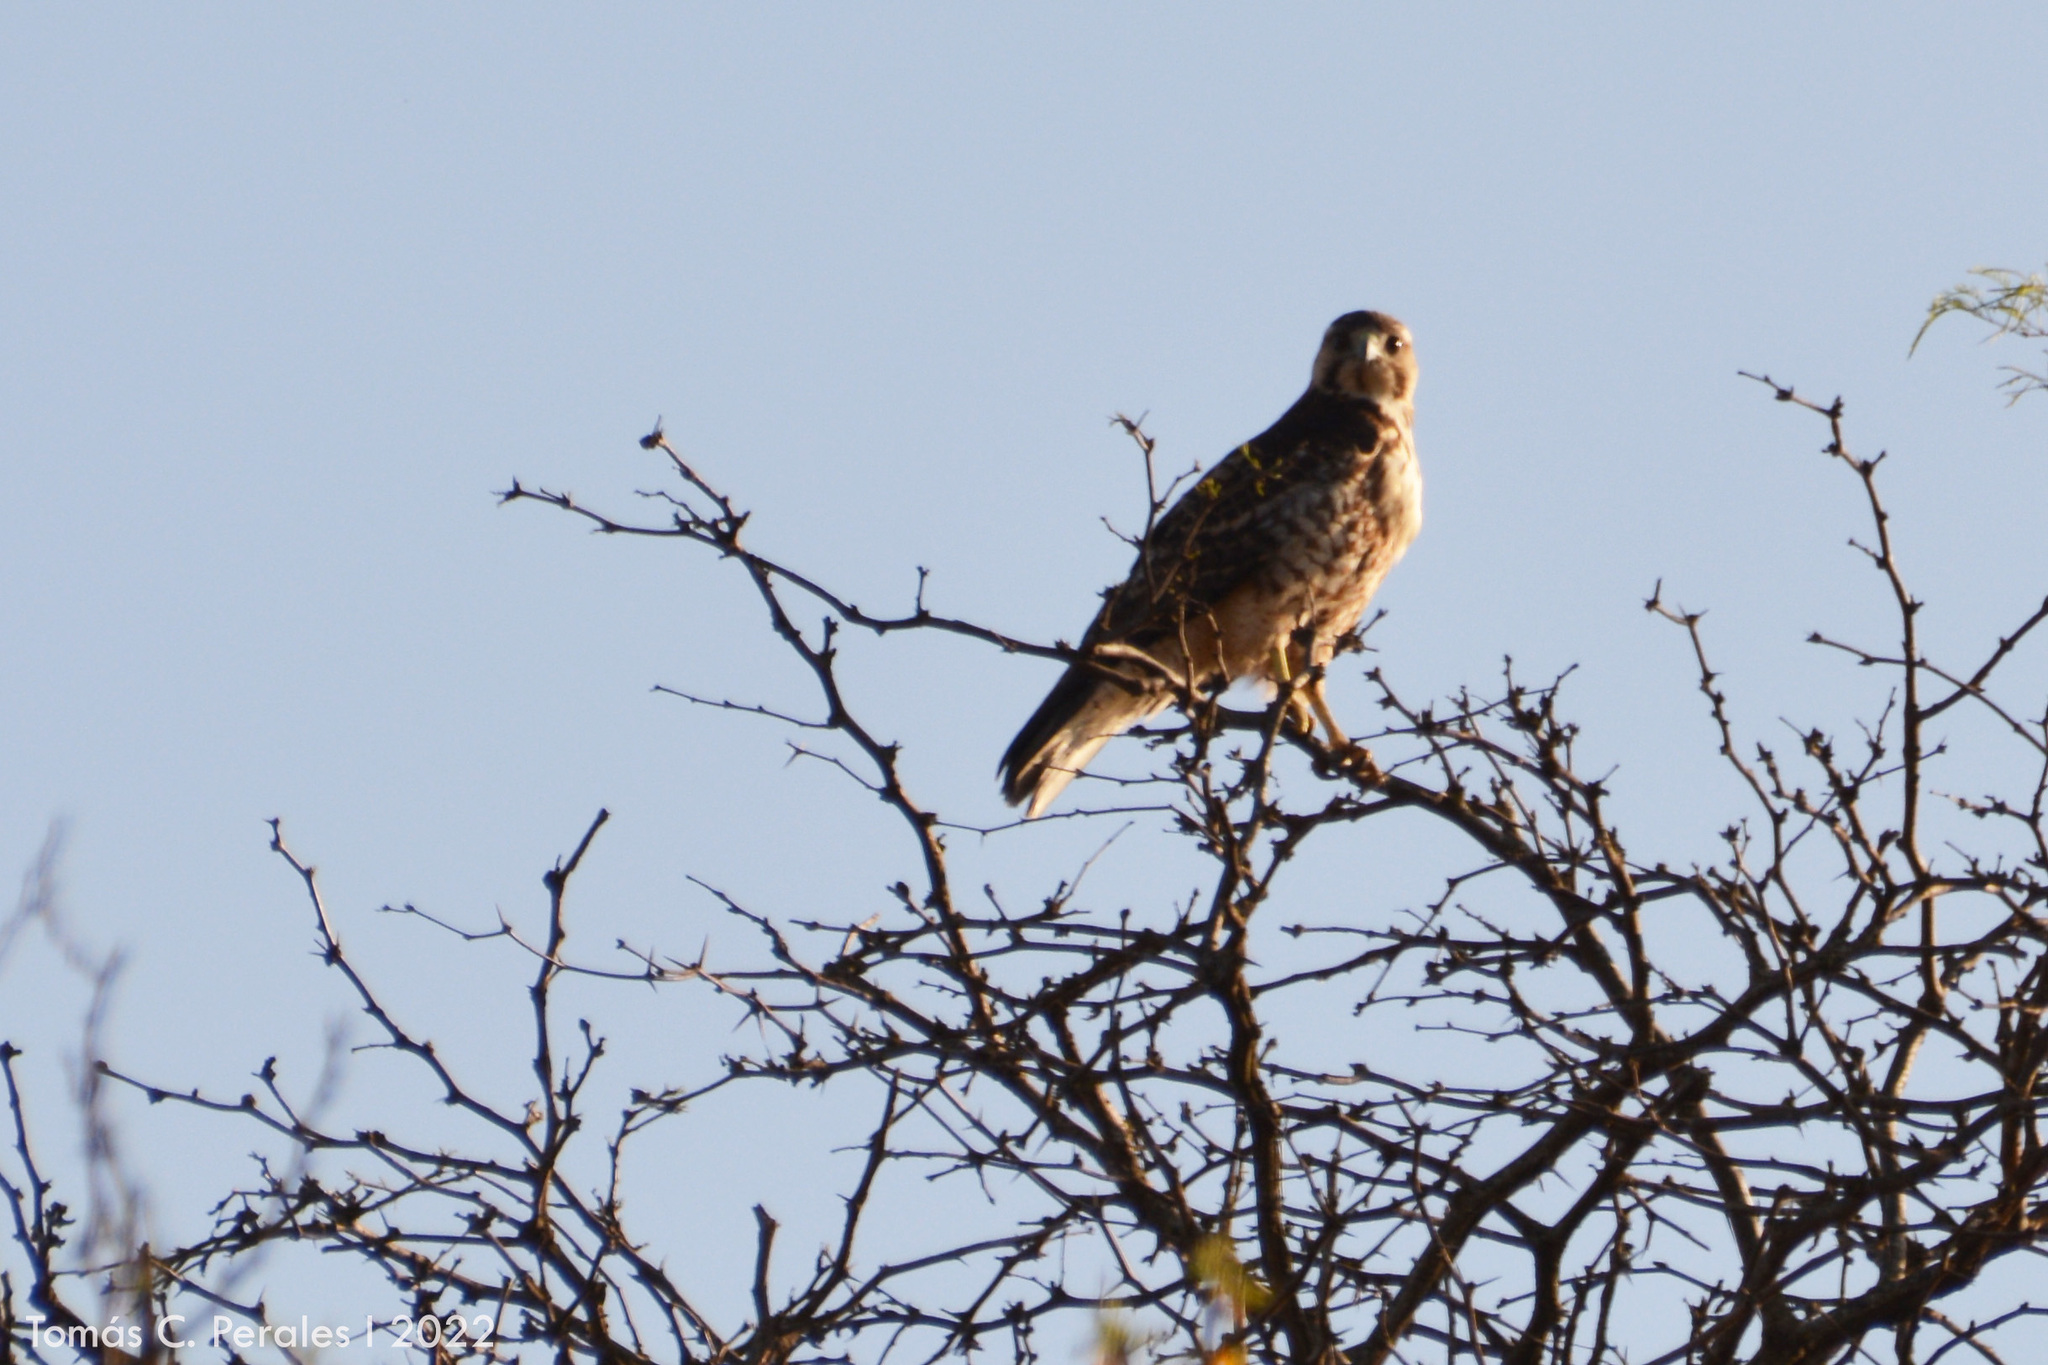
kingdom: Animalia
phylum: Chordata
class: Aves
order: Accipitriformes
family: Accipitridae
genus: Buteo
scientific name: Buteo polyosoma
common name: Variable hawk
